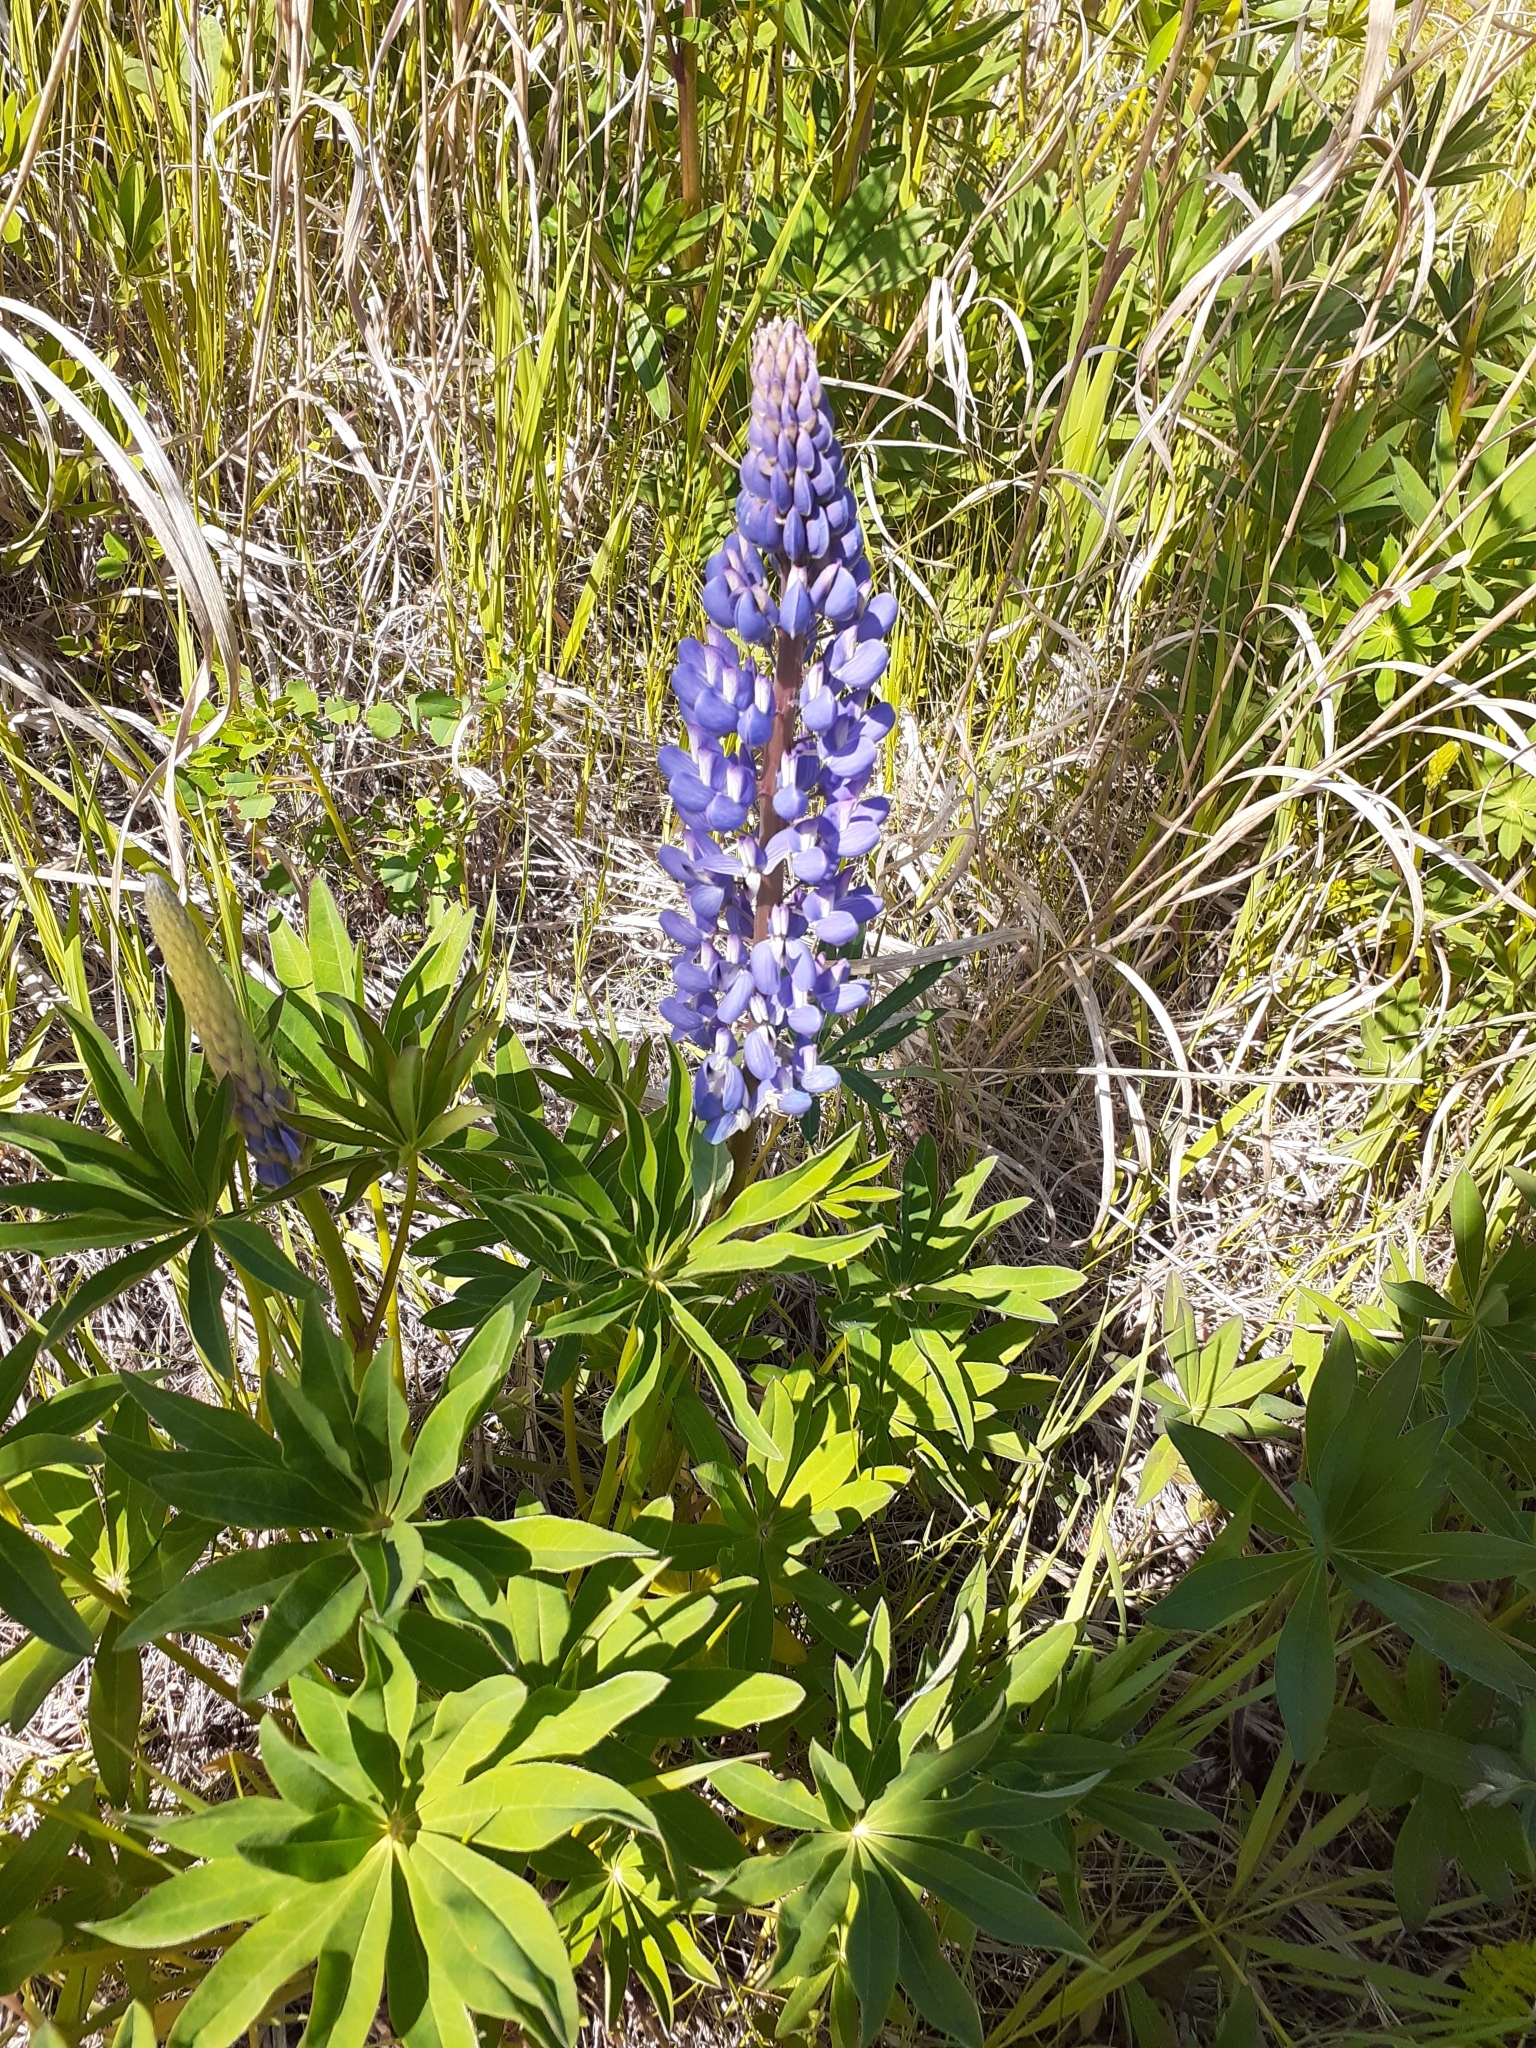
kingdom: Plantae
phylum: Tracheophyta
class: Magnoliopsida
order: Fabales
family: Fabaceae
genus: Lupinus
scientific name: Lupinus polyphyllus
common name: Garden lupin
